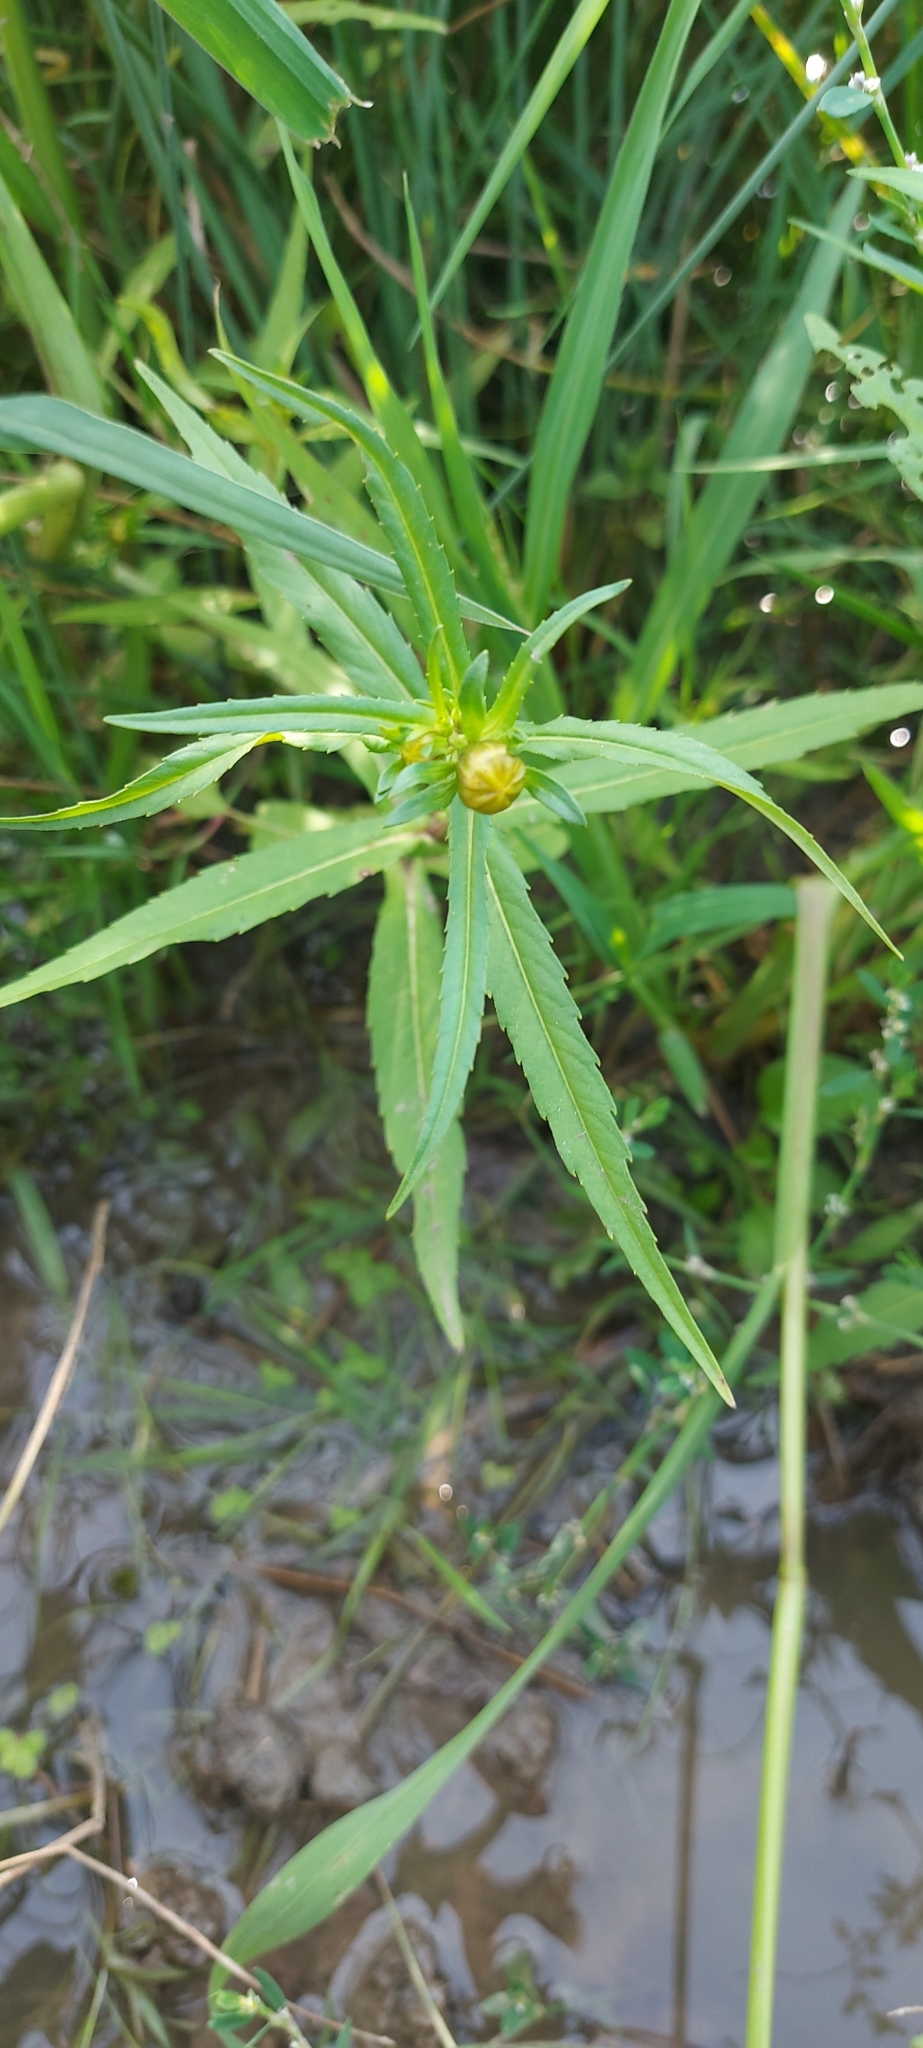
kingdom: Plantae
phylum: Tracheophyta
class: Magnoliopsida
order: Asterales
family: Asteraceae
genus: Bidens
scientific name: Bidens cernua
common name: Nodding bur-marigold
